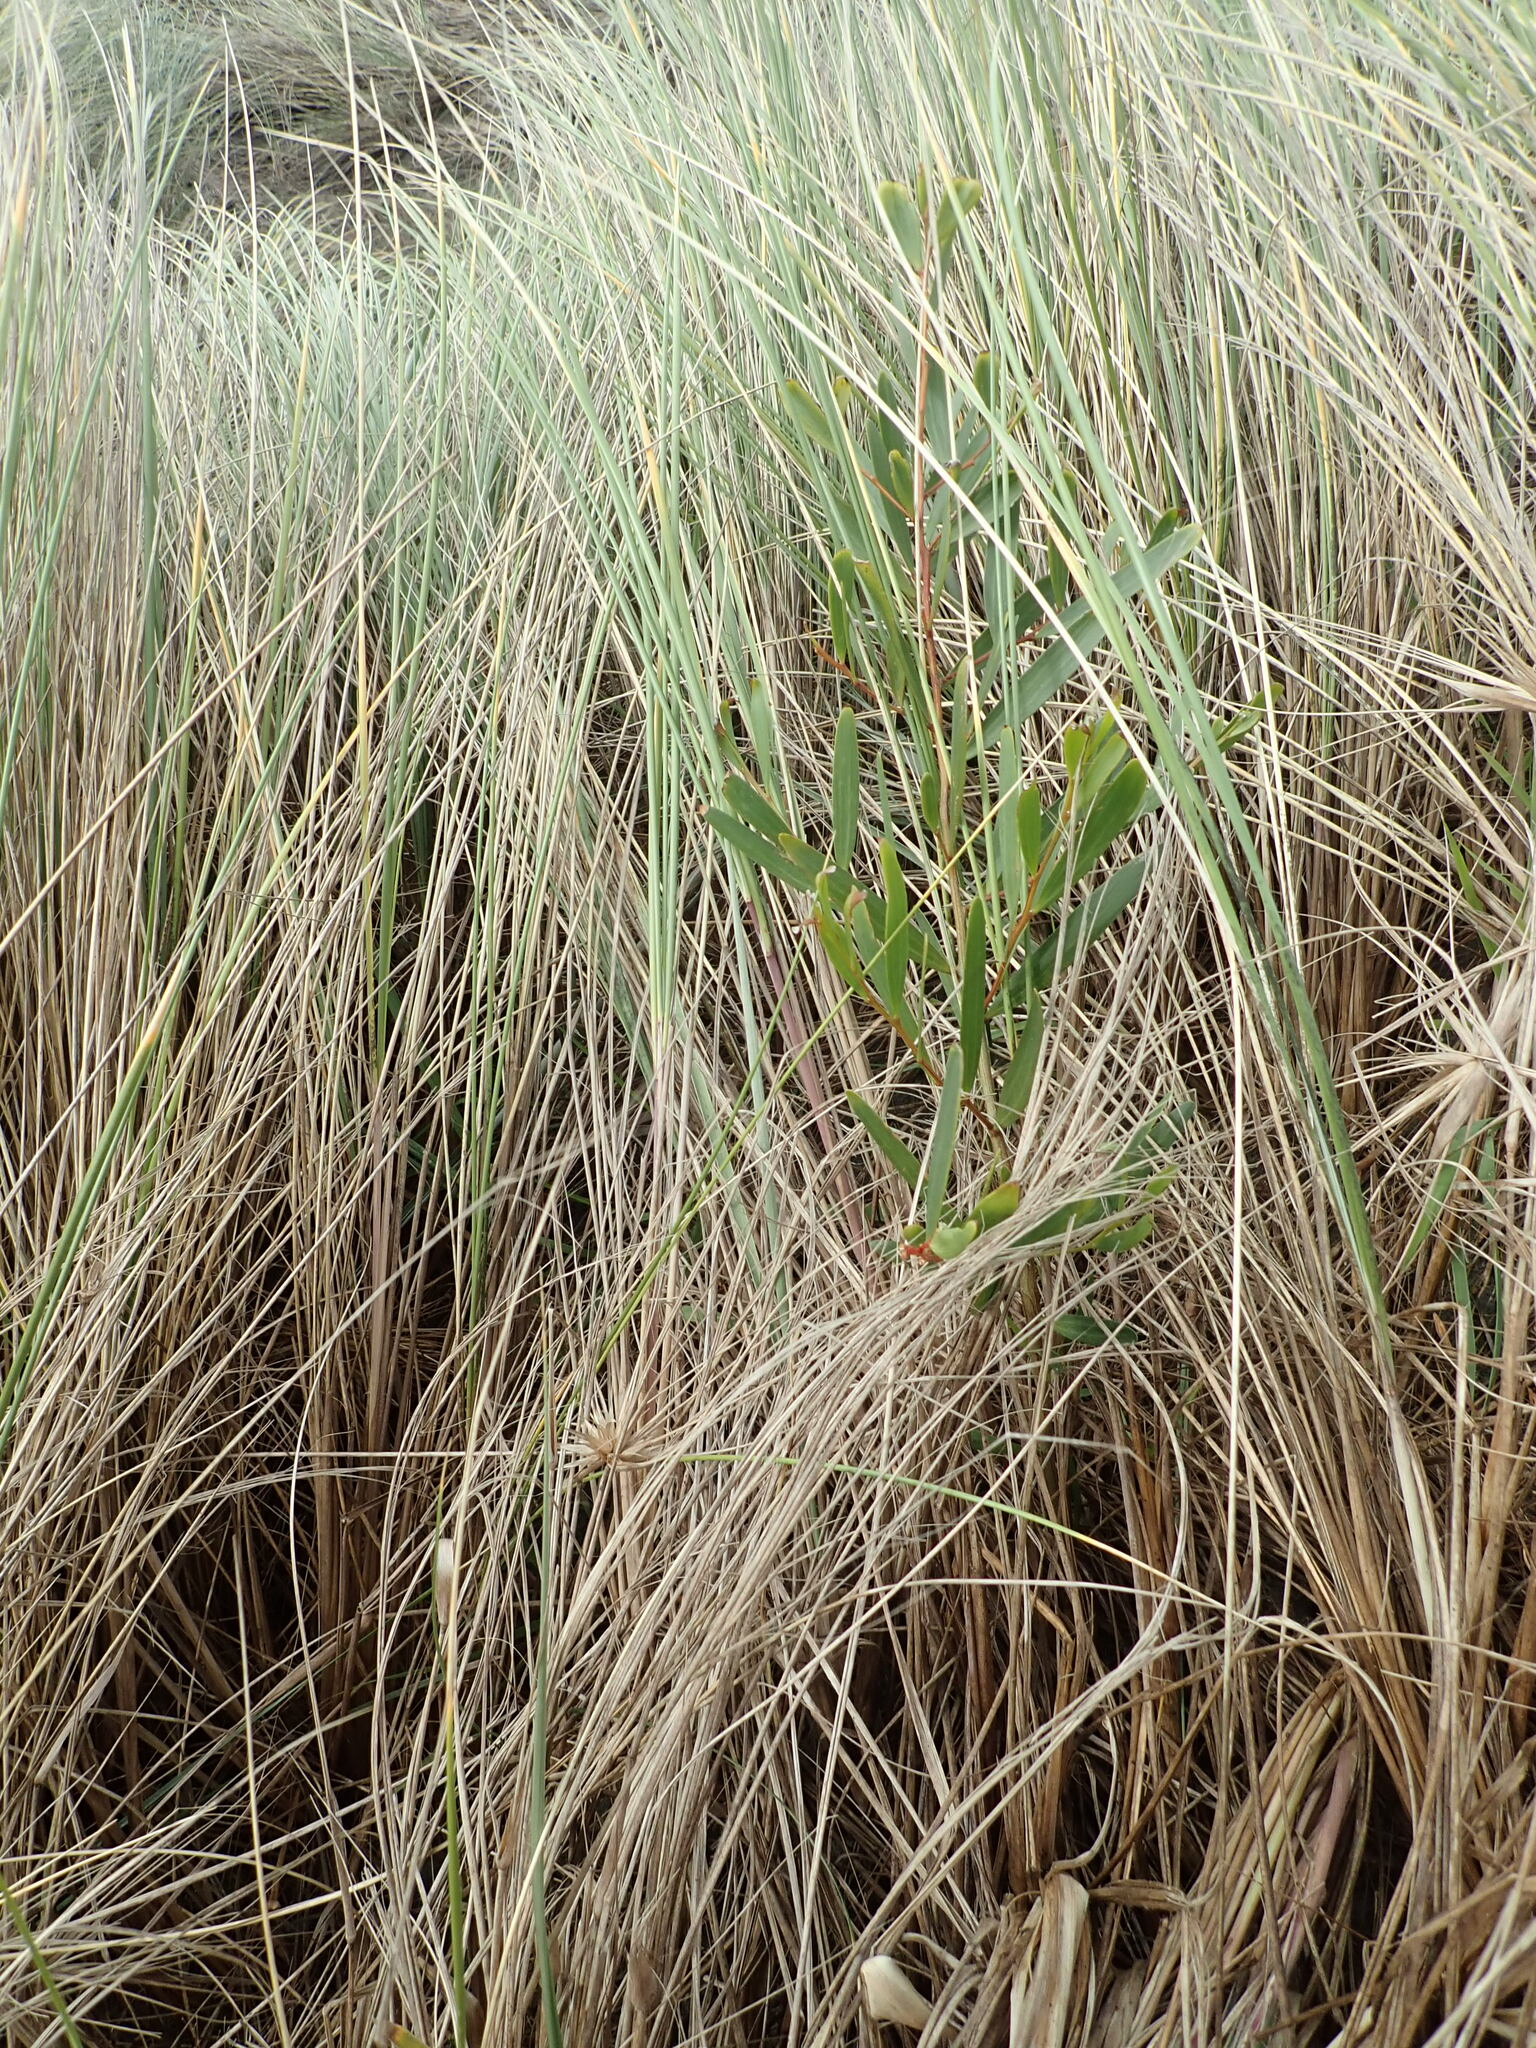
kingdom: Plantae
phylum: Tracheophyta
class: Magnoliopsida
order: Fabales
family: Fabaceae
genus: Acacia
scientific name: Acacia longifolia
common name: Sydney golden wattle
